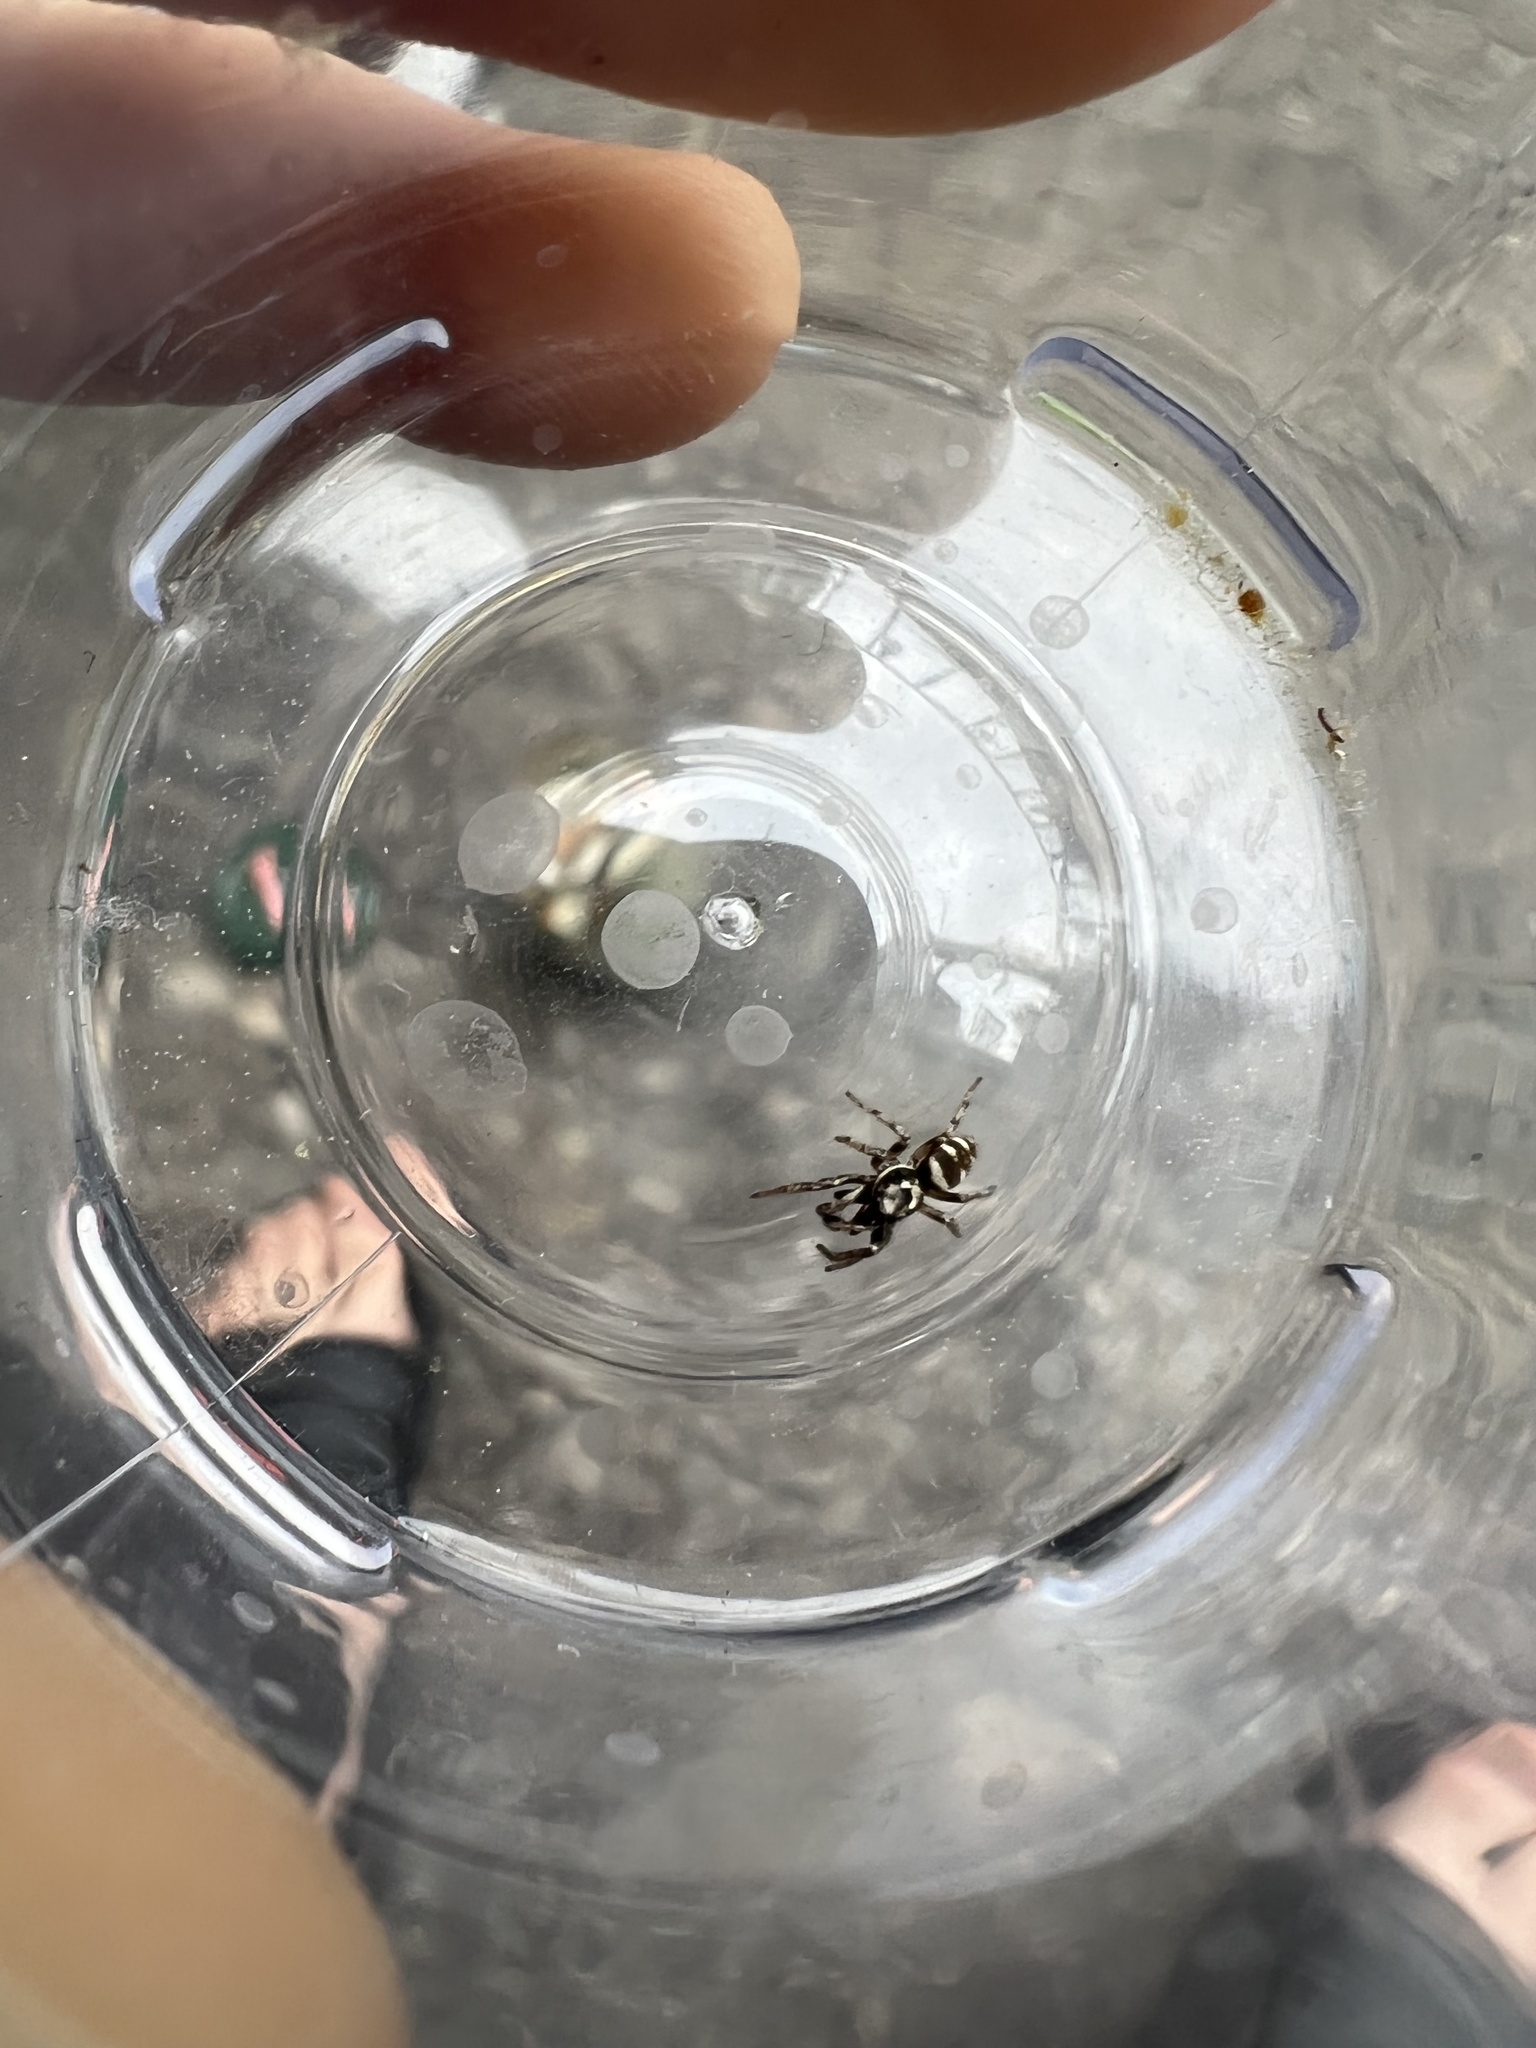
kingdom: Animalia
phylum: Arthropoda
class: Arachnida
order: Araneae
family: Salticidae
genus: Salticus
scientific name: Salticus scenicus
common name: Zebra jumper
